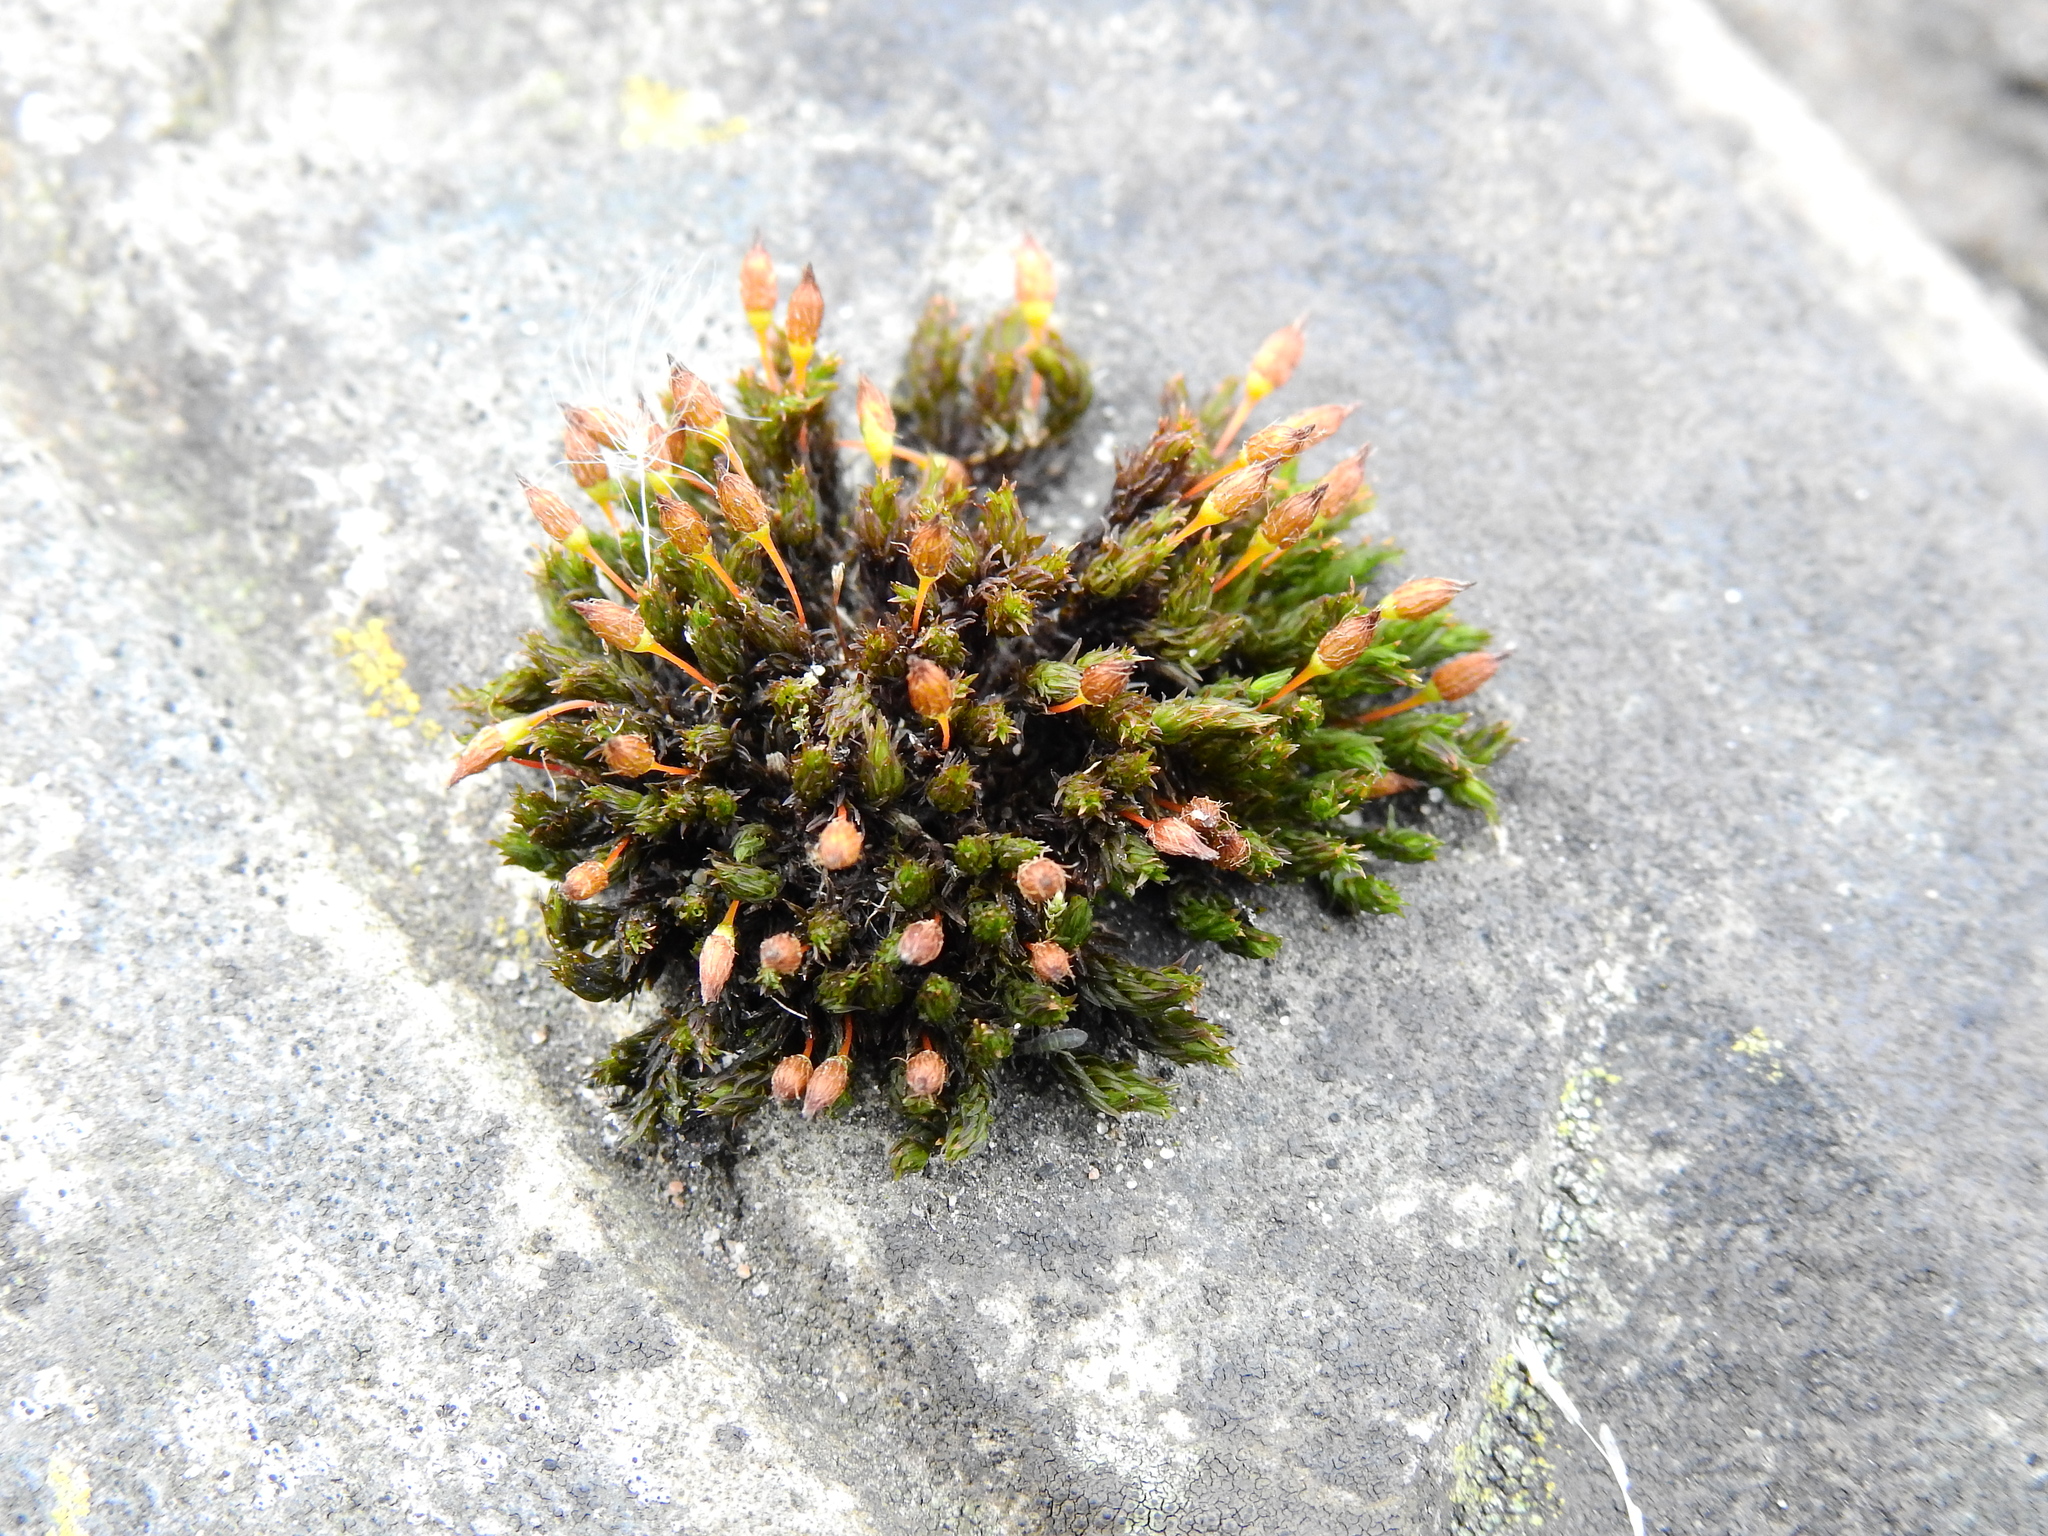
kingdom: Plantae
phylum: Bryophyta
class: Bryopsida
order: Orthotrichales
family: Orthotrichaceae
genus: Orthotrichum
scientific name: Orthotrichum anomalum
